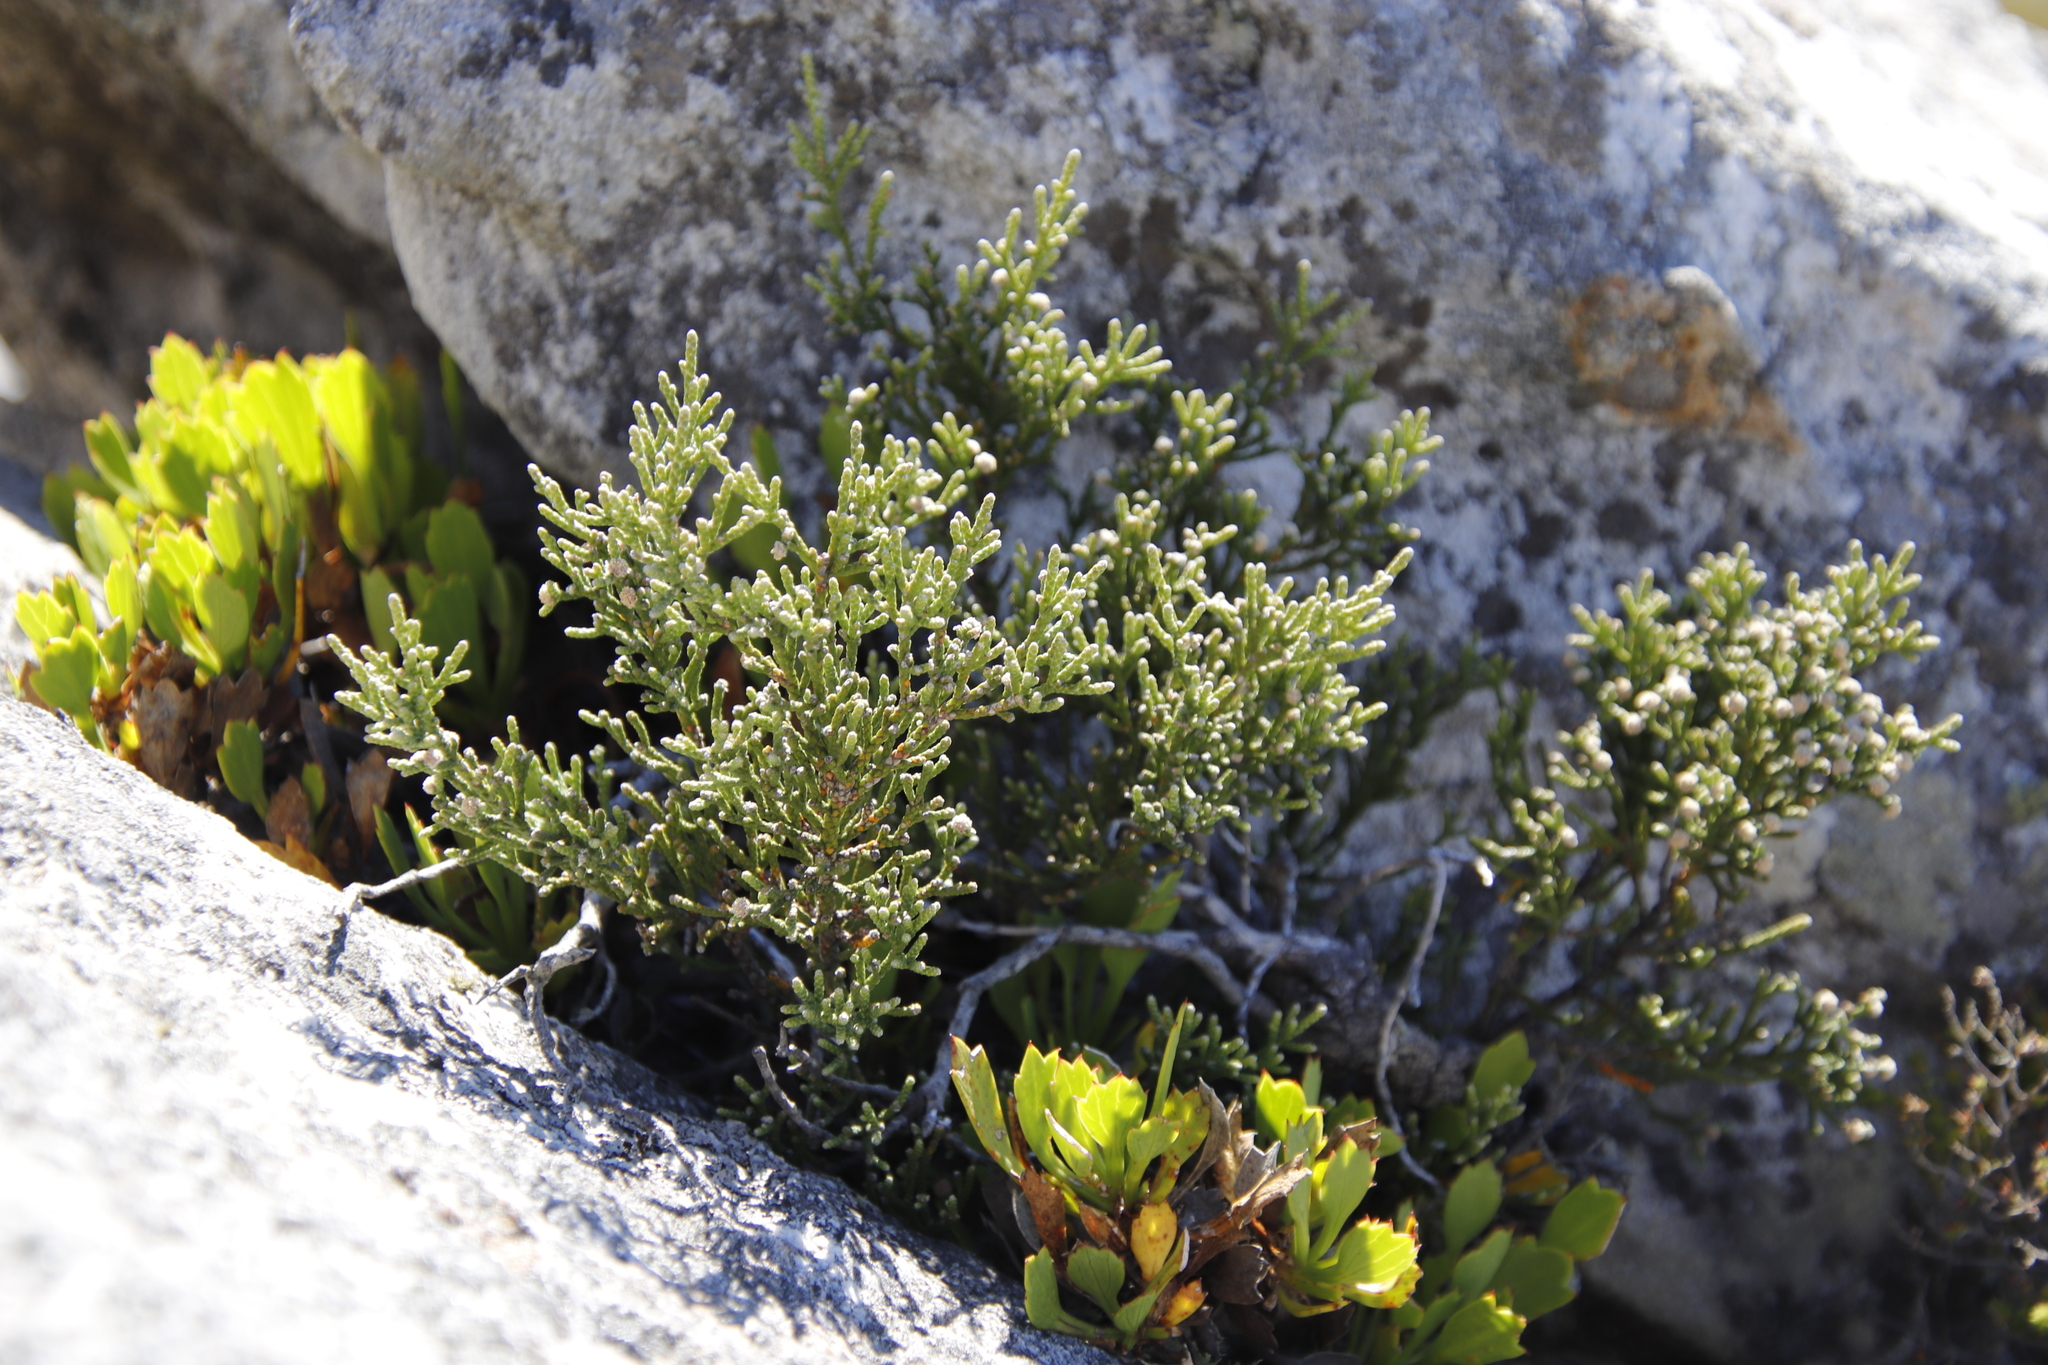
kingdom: Plantae
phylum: Tracheophyta
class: Magnoliopsida
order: Bruniales
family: Bruniaceae
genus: Brunia
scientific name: Brunia microphylla
